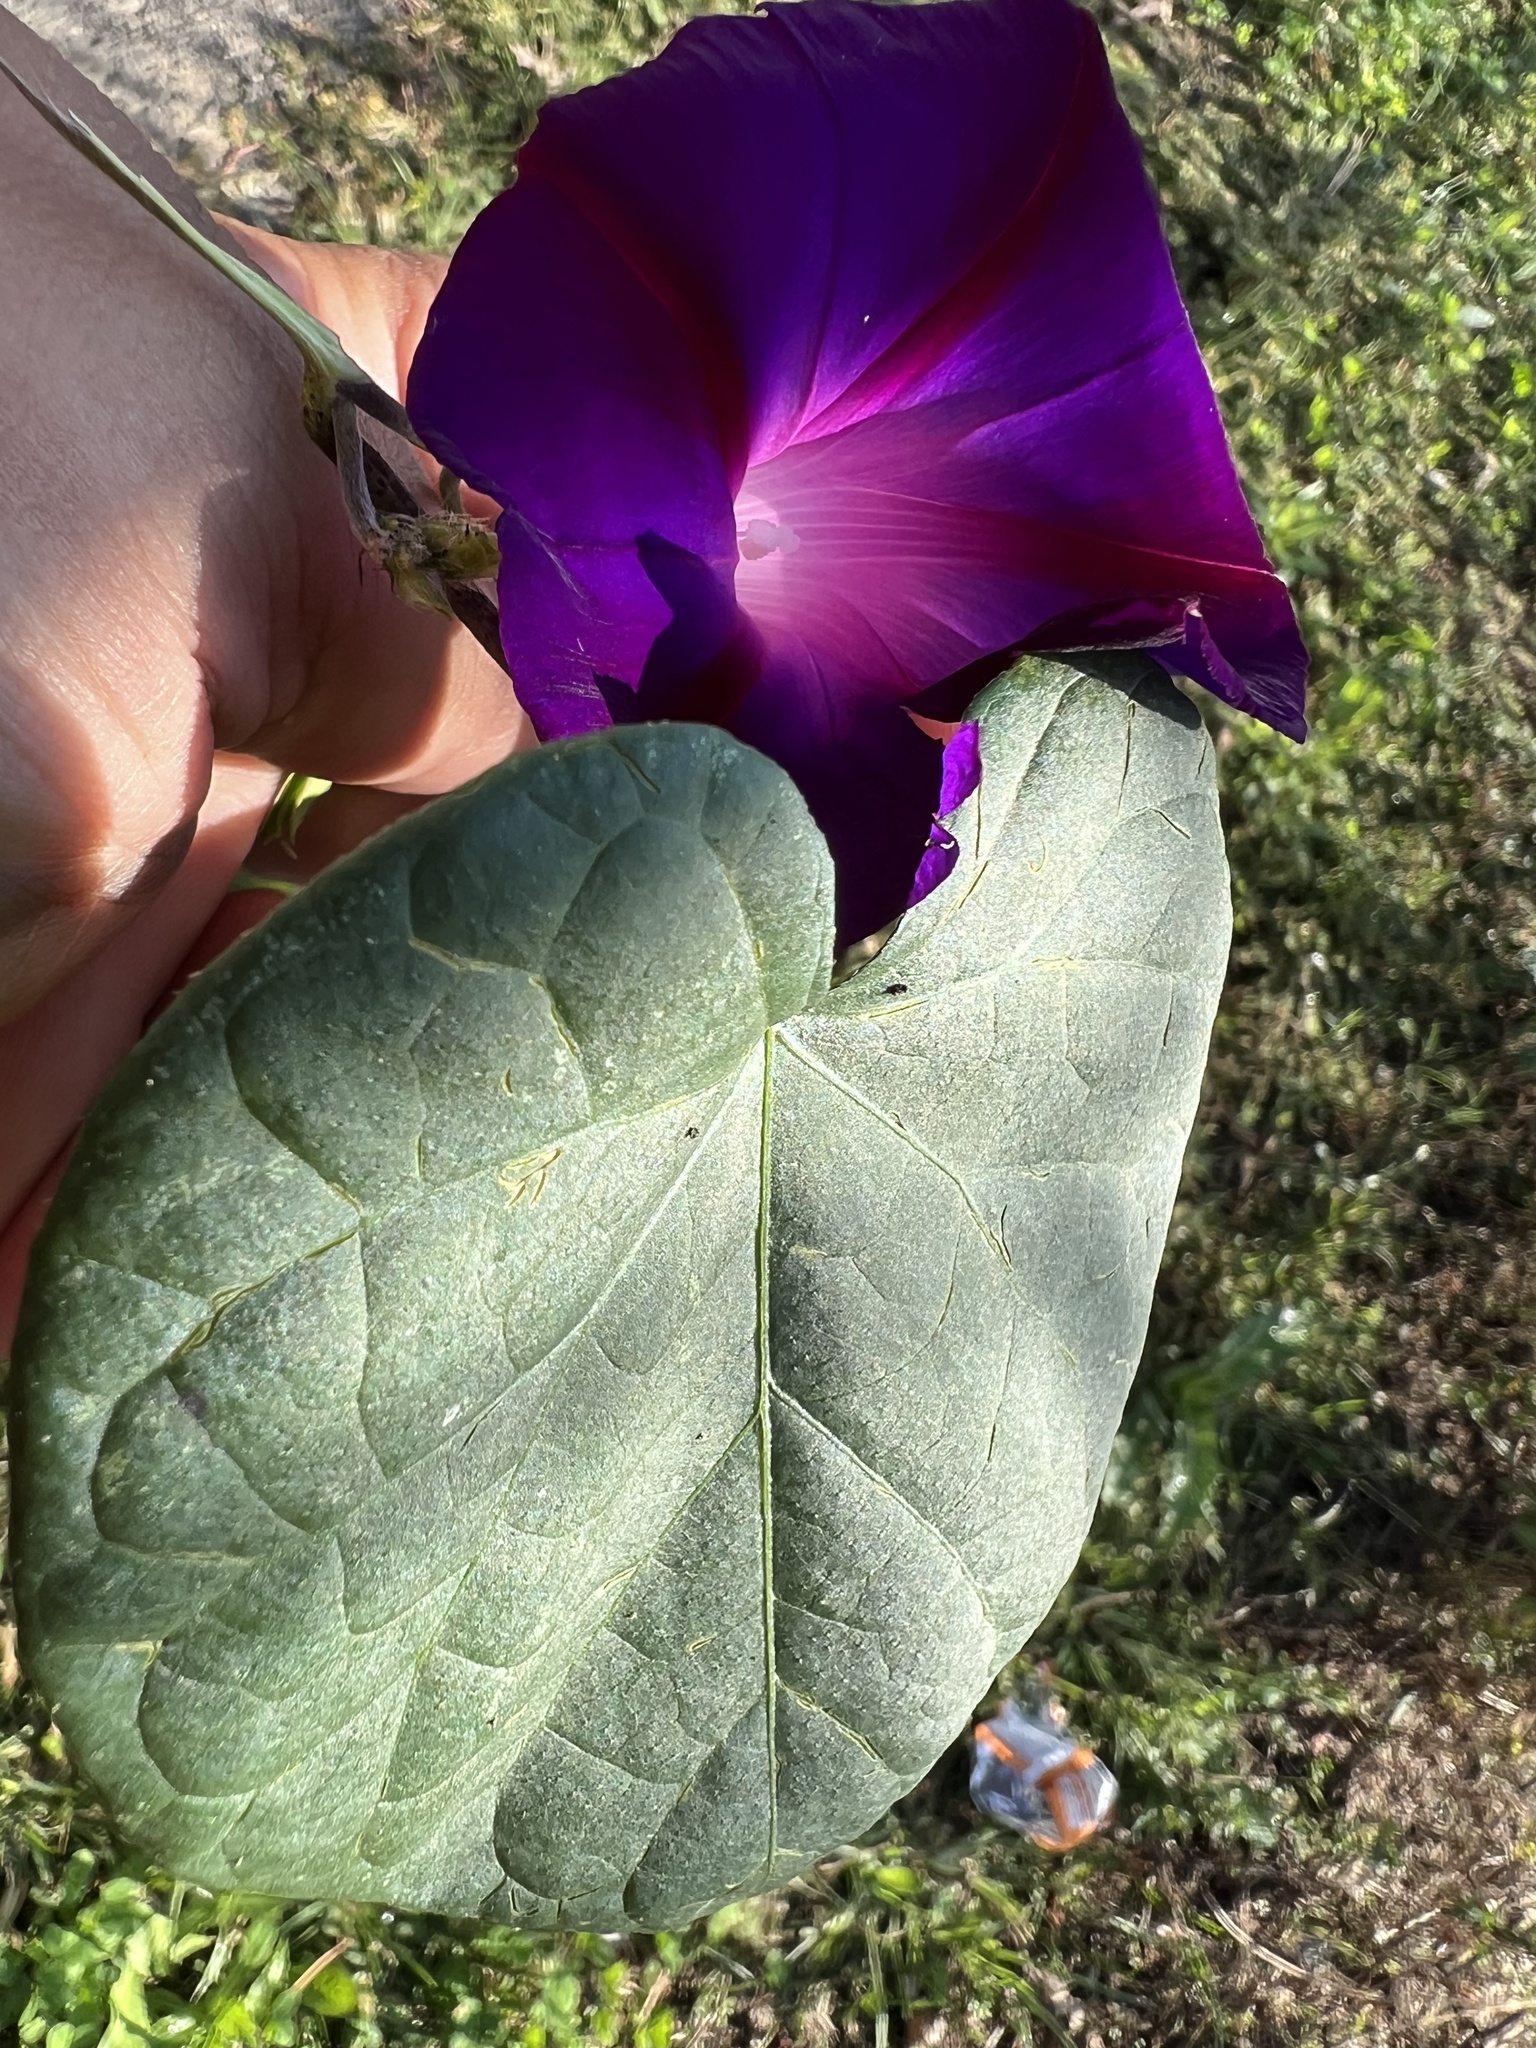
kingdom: Plantae
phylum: Tracheophyta
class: Magnoliopsida
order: Solanales
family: Convolvulaceae
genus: Ipomoea
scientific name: Ipomoea purpurea
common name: Common morning-glory
